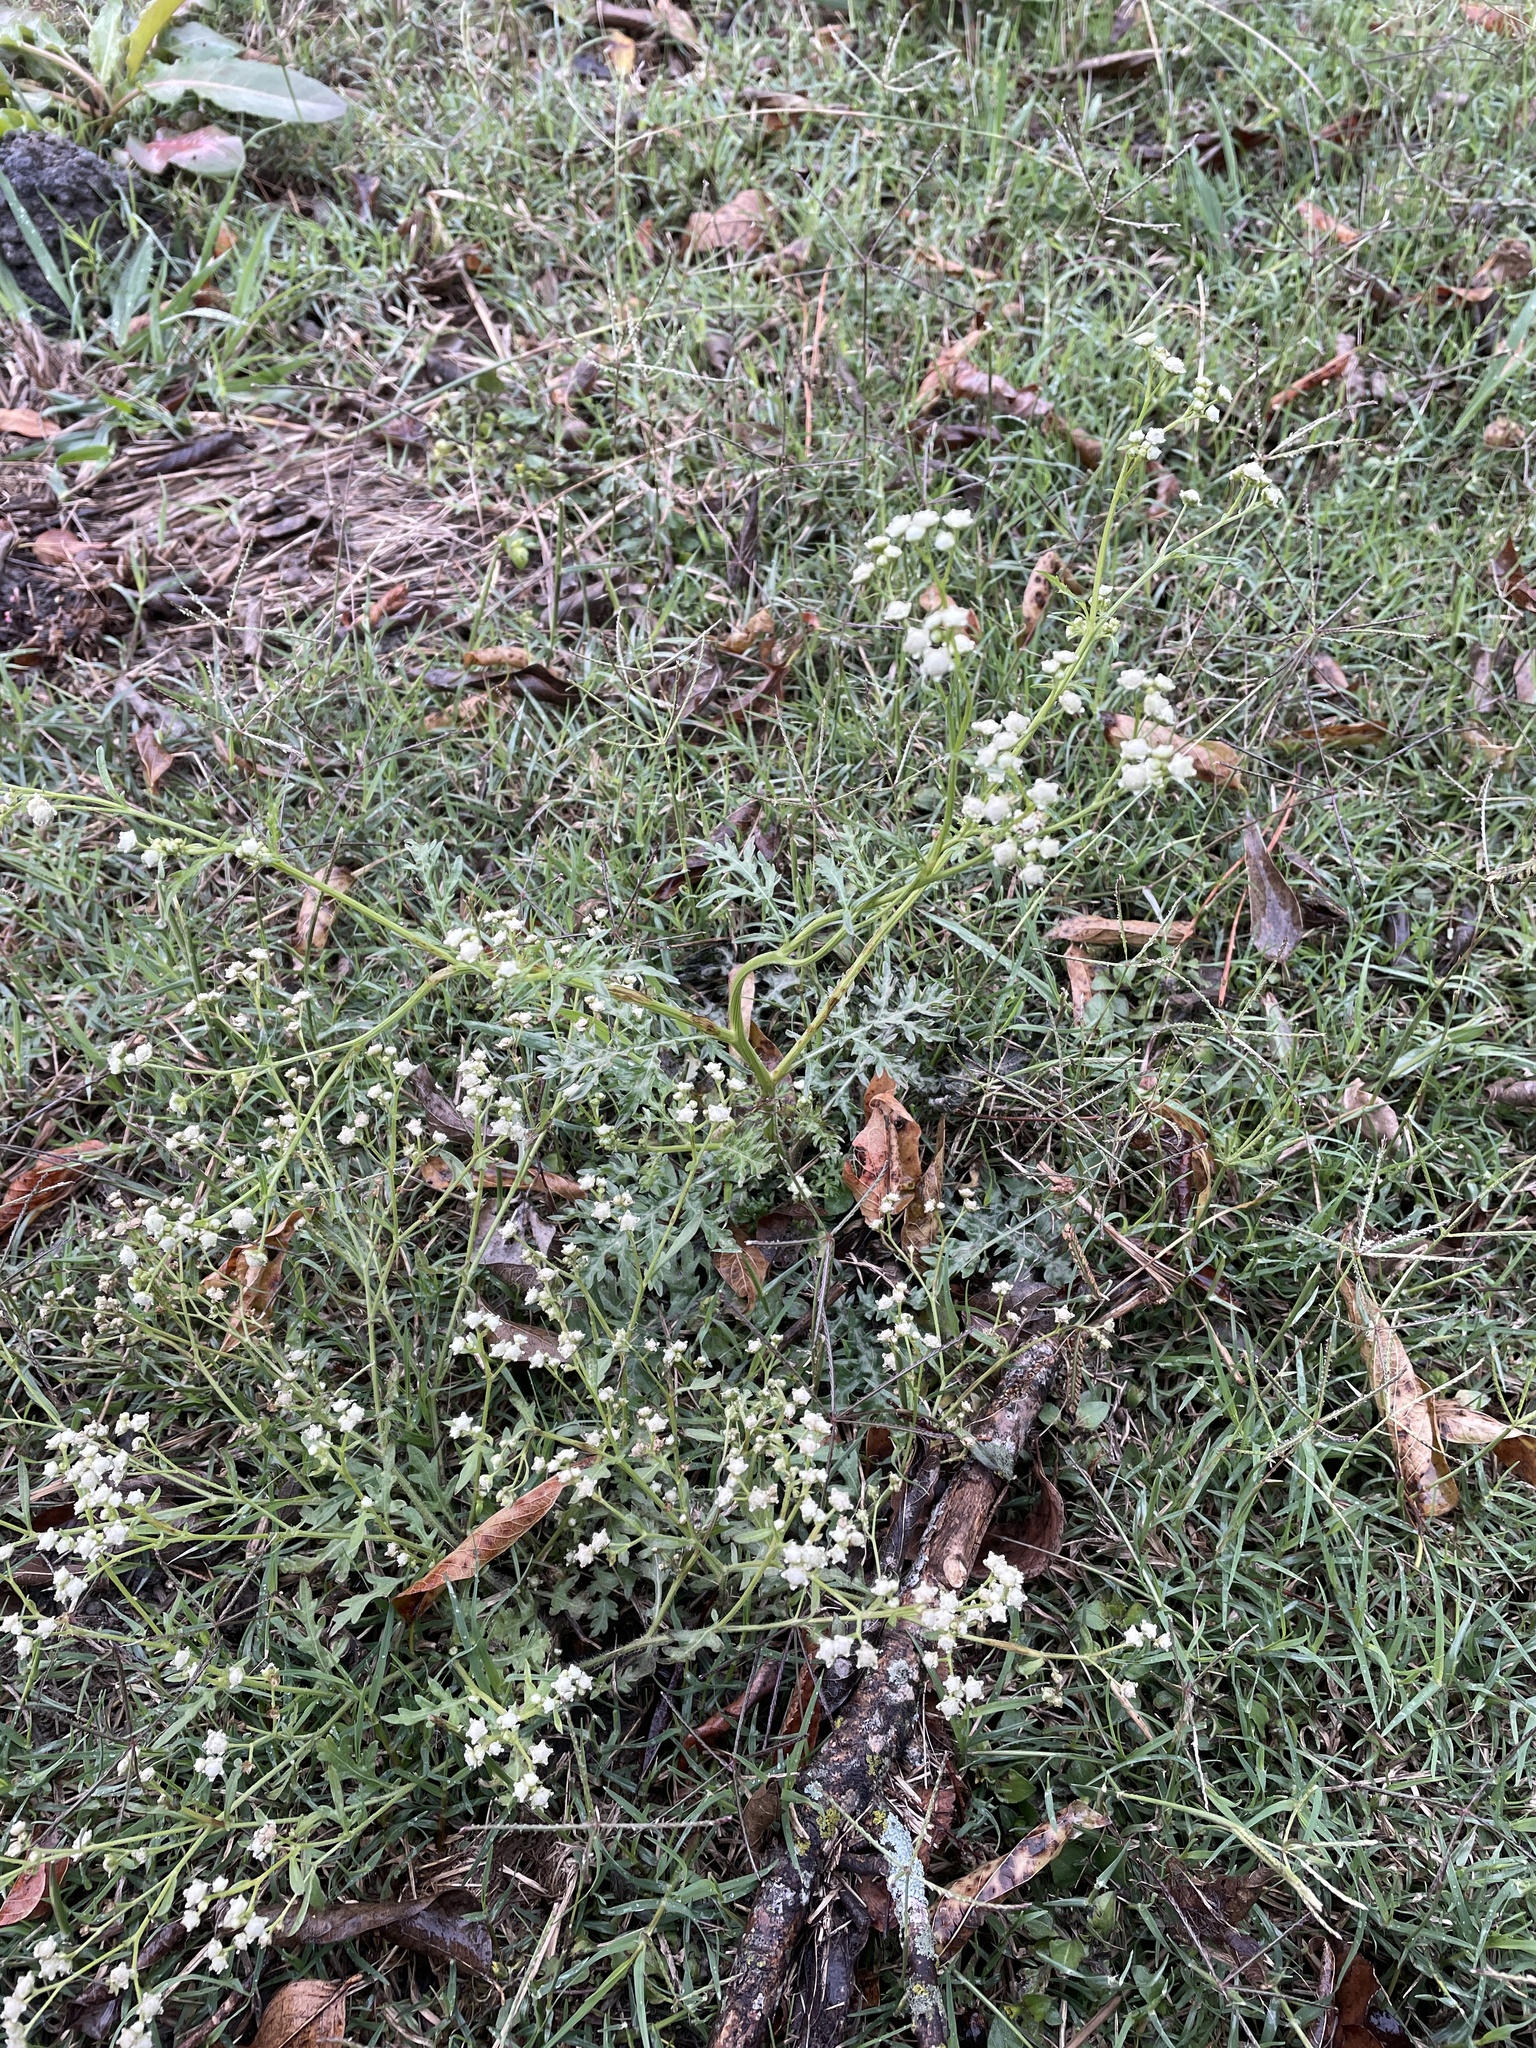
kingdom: Plantae
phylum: Tracheophyta
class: Magnoliopsida
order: Asterales
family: Asteraceae
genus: Parthenium
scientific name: Parthenium hysterophorus
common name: Santa maria feverfew
